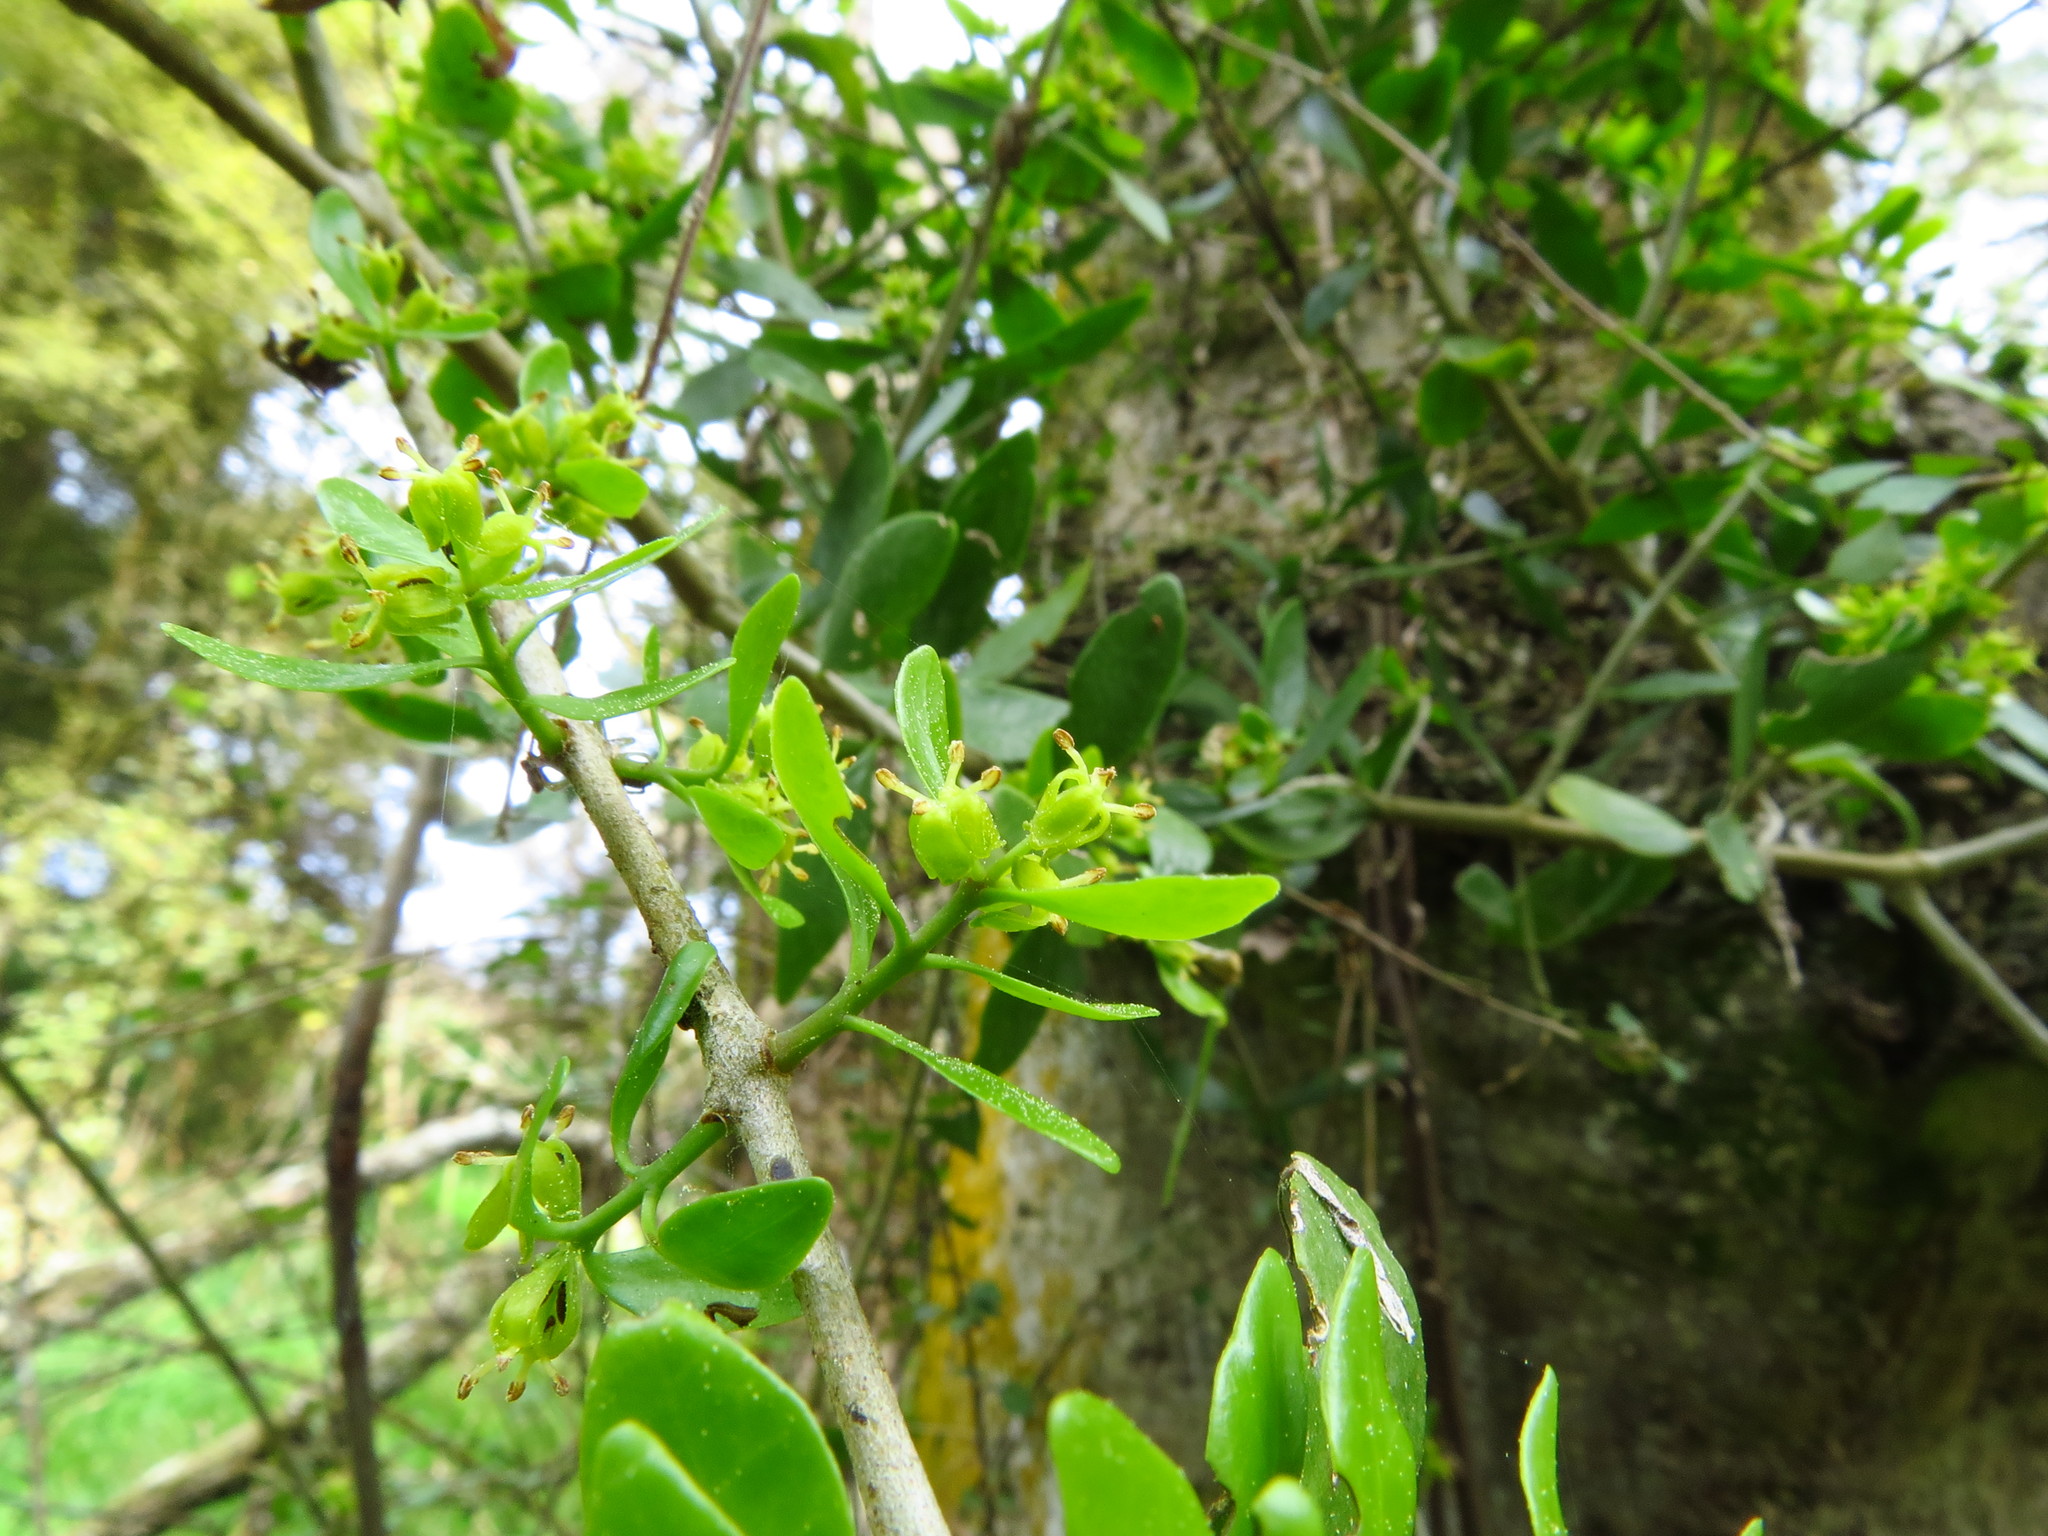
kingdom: Plantae
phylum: Tracheophyta
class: Magnoliopsida
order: Santalales
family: Loranthaceae
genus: Tupeia
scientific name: Tupeia antarctica
